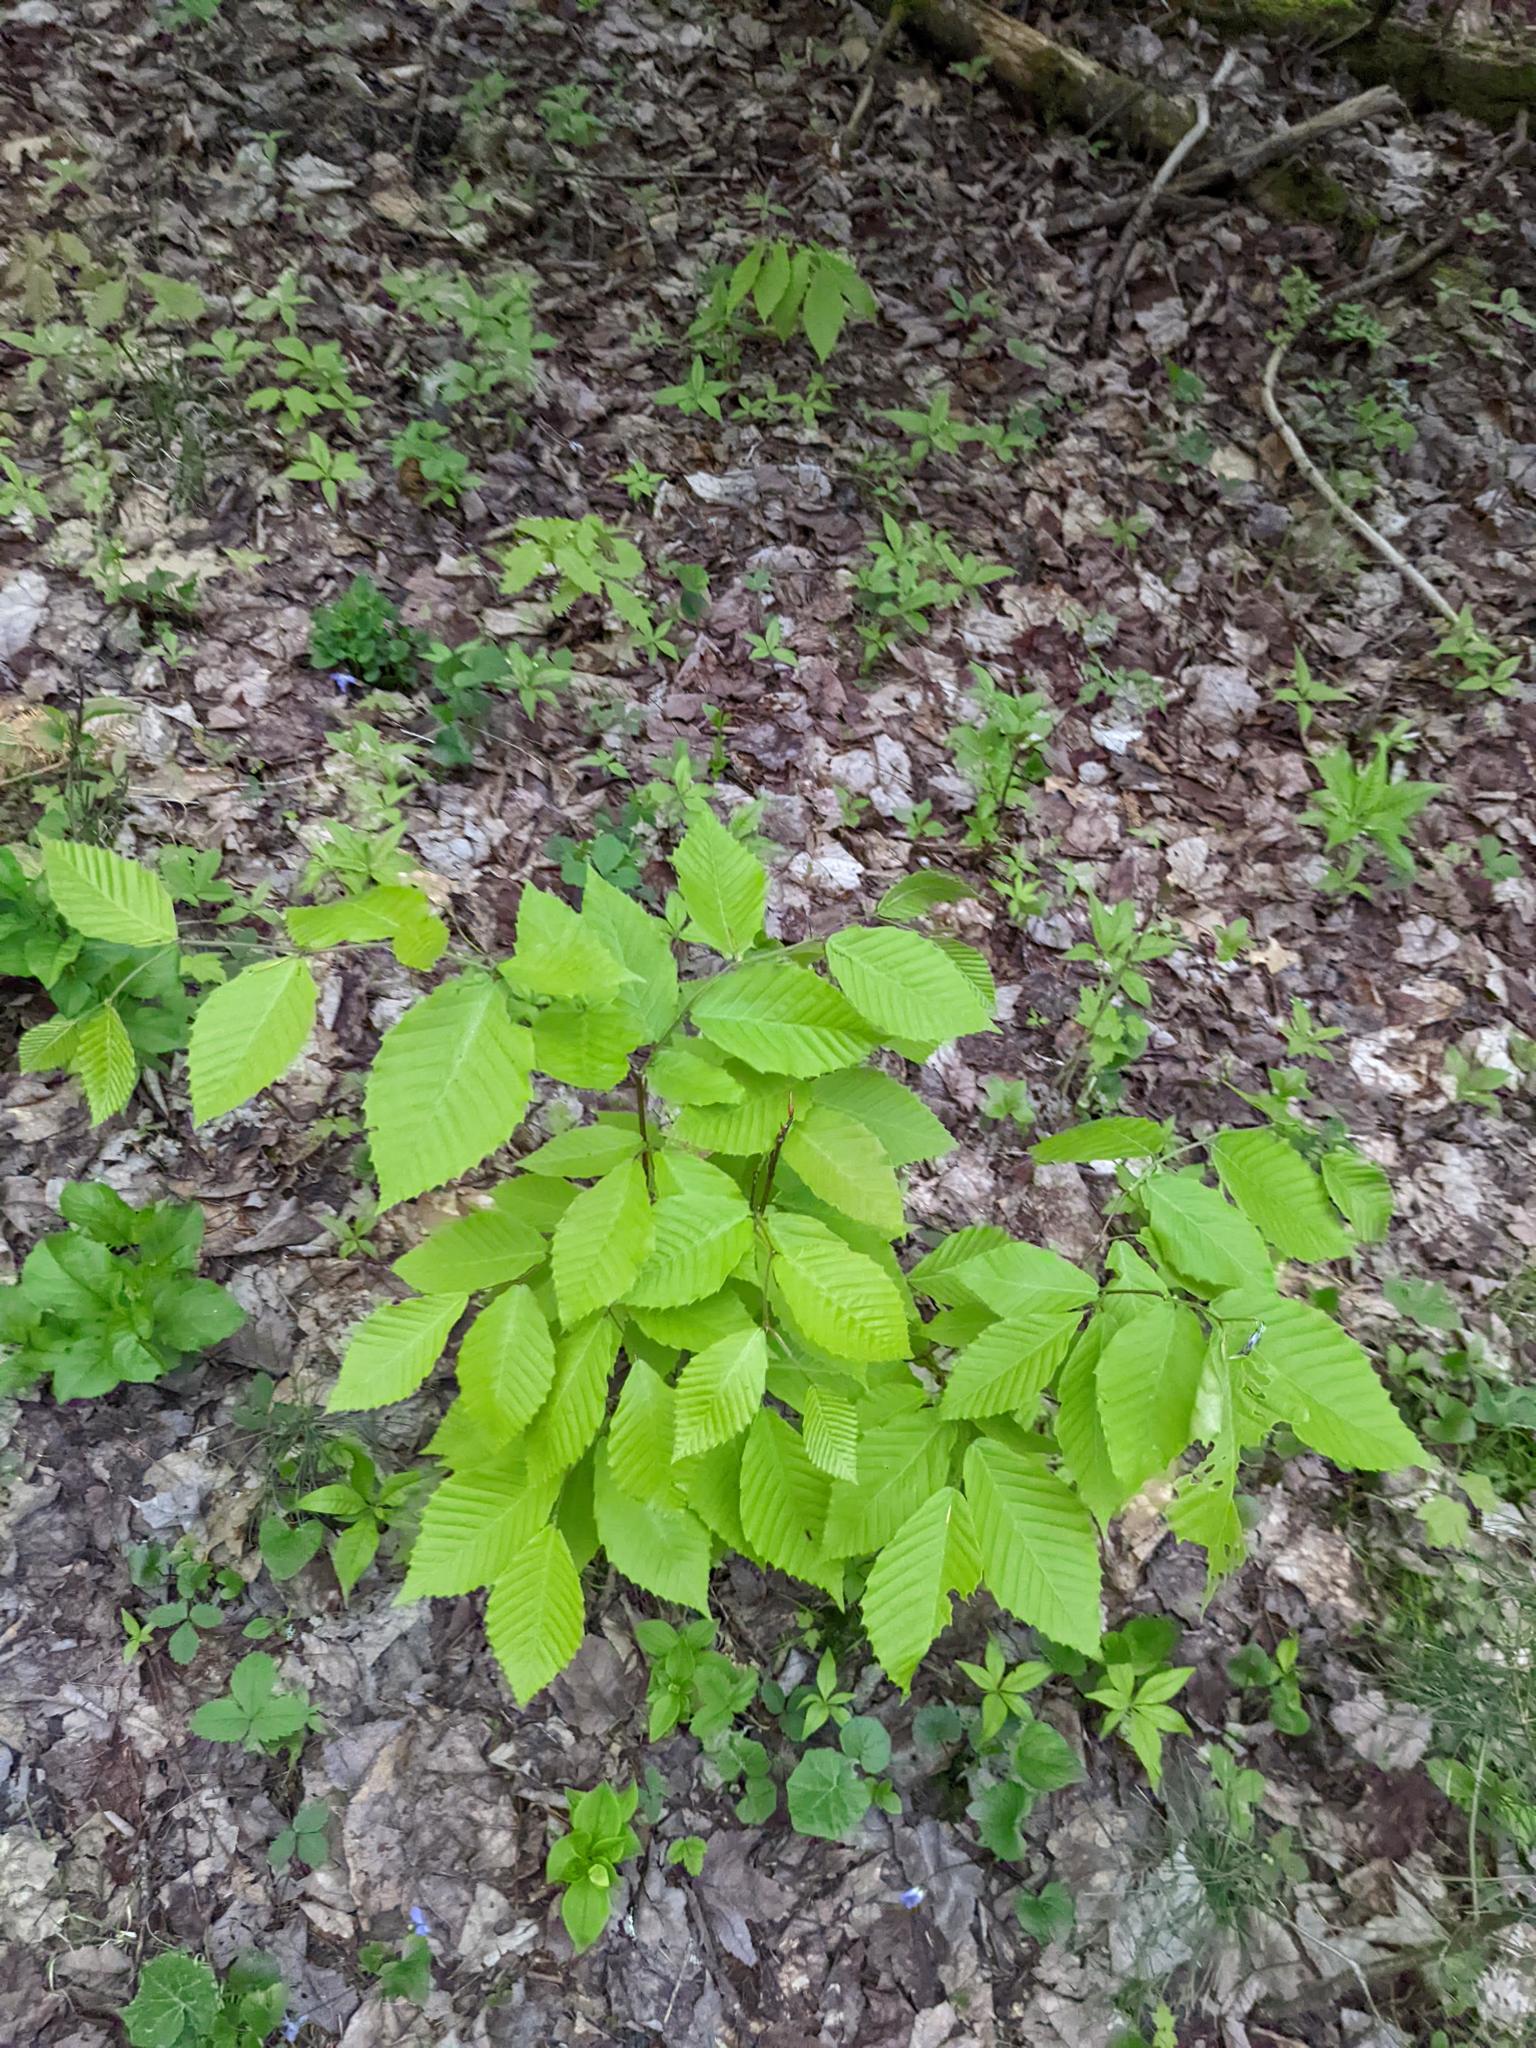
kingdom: Plantae
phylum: Tracheophyta
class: Magnoliopsida
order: Fagales
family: Fagaceae
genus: Fagus
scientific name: Fagus grandifolia
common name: American beech
